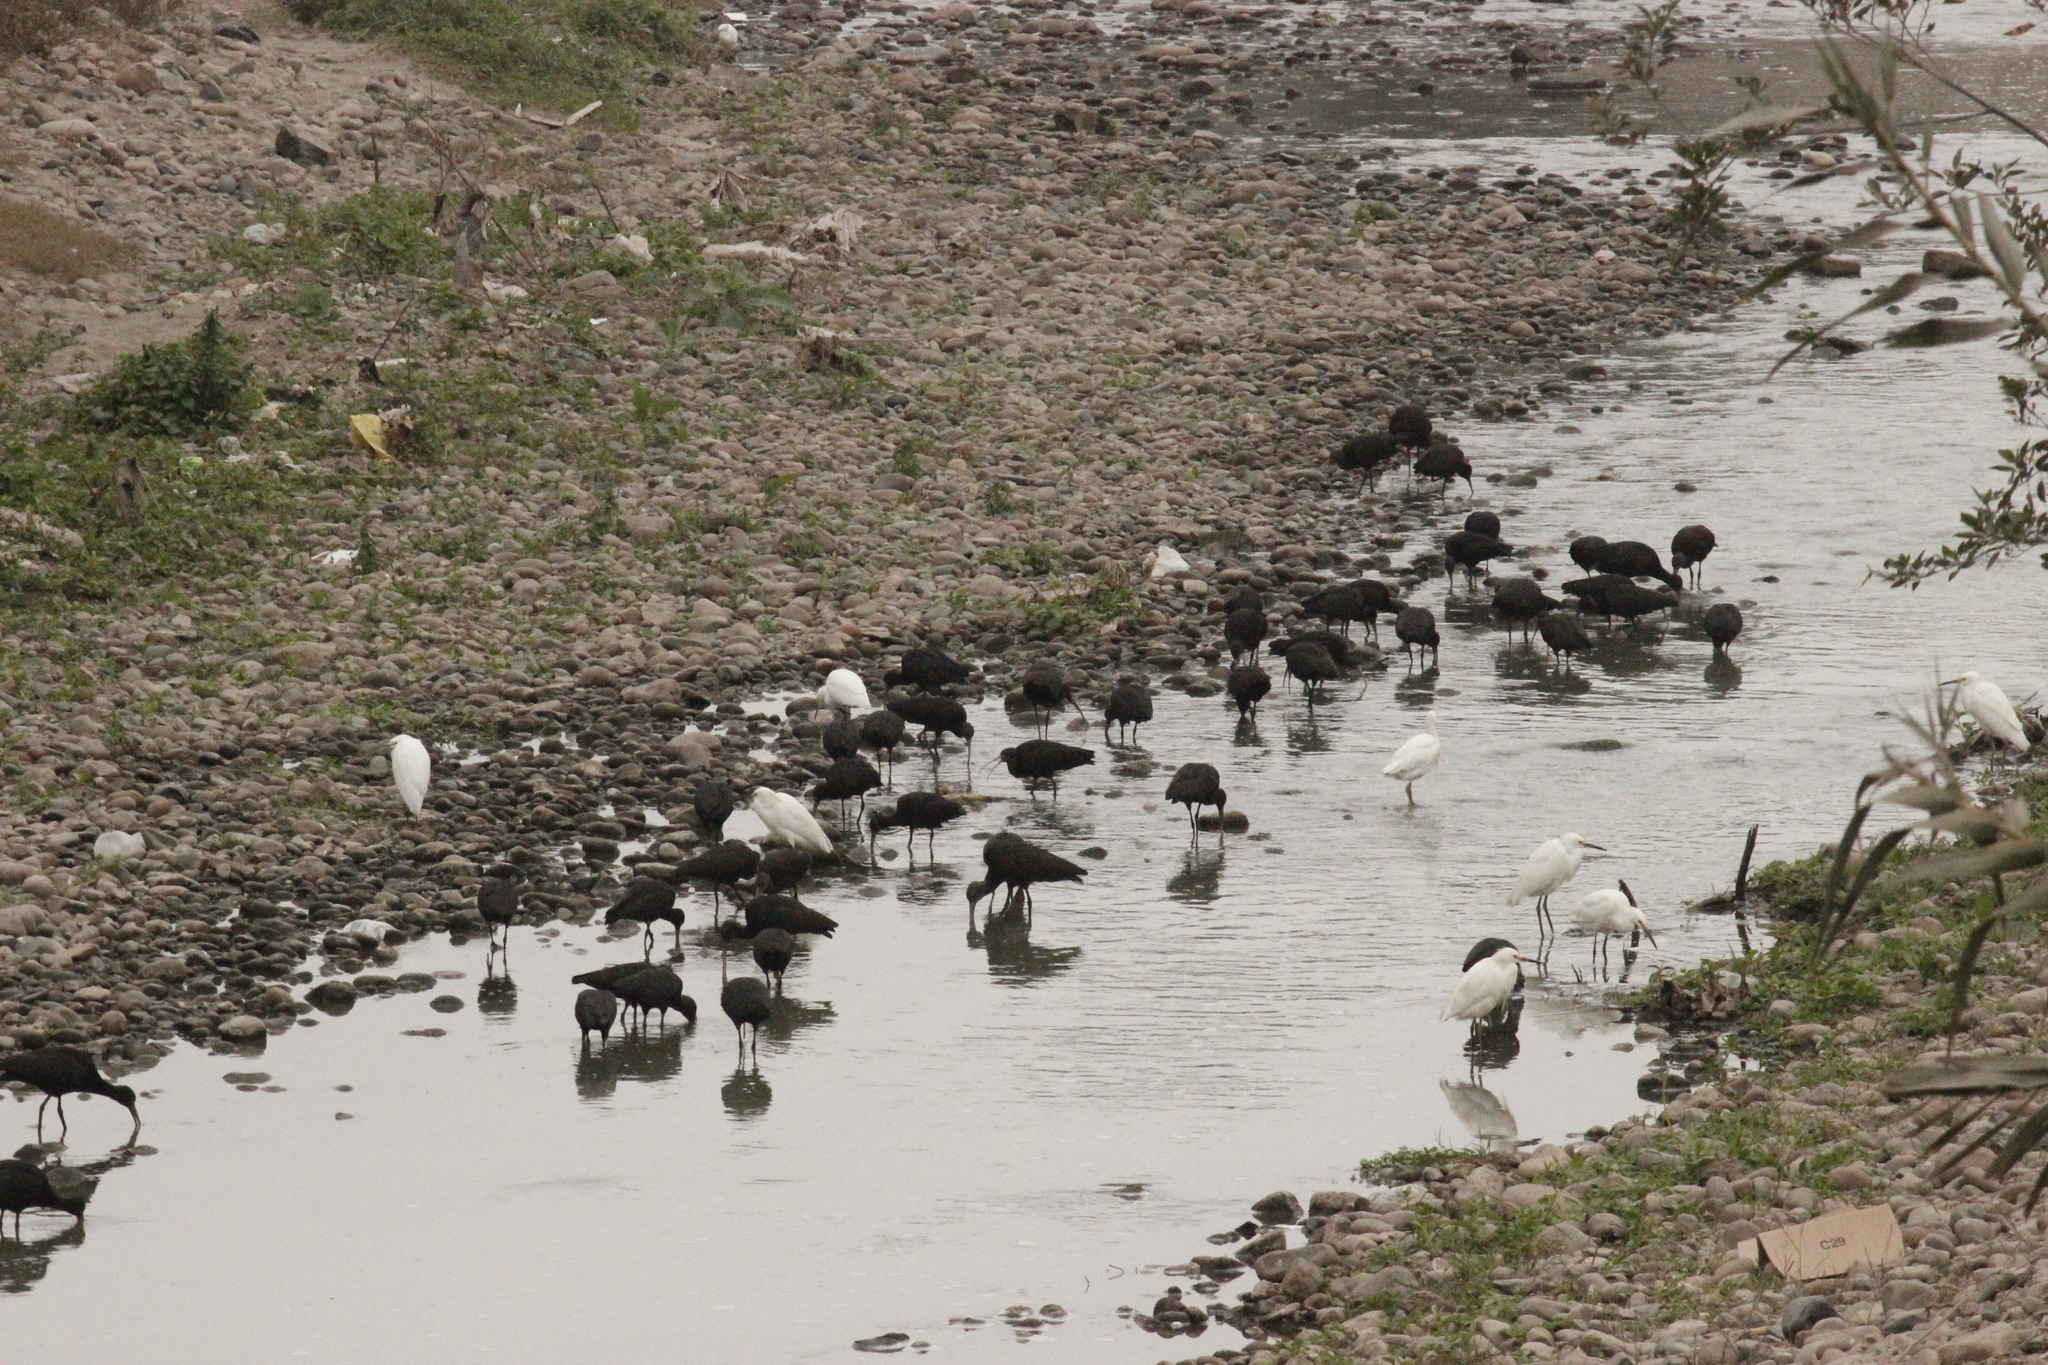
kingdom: Animalia
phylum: Chordata
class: Aves
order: Pelecaniformes
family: Threskiornithidae
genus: Plegadis
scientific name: Plegadis ridgwayi
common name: Puna ibis
